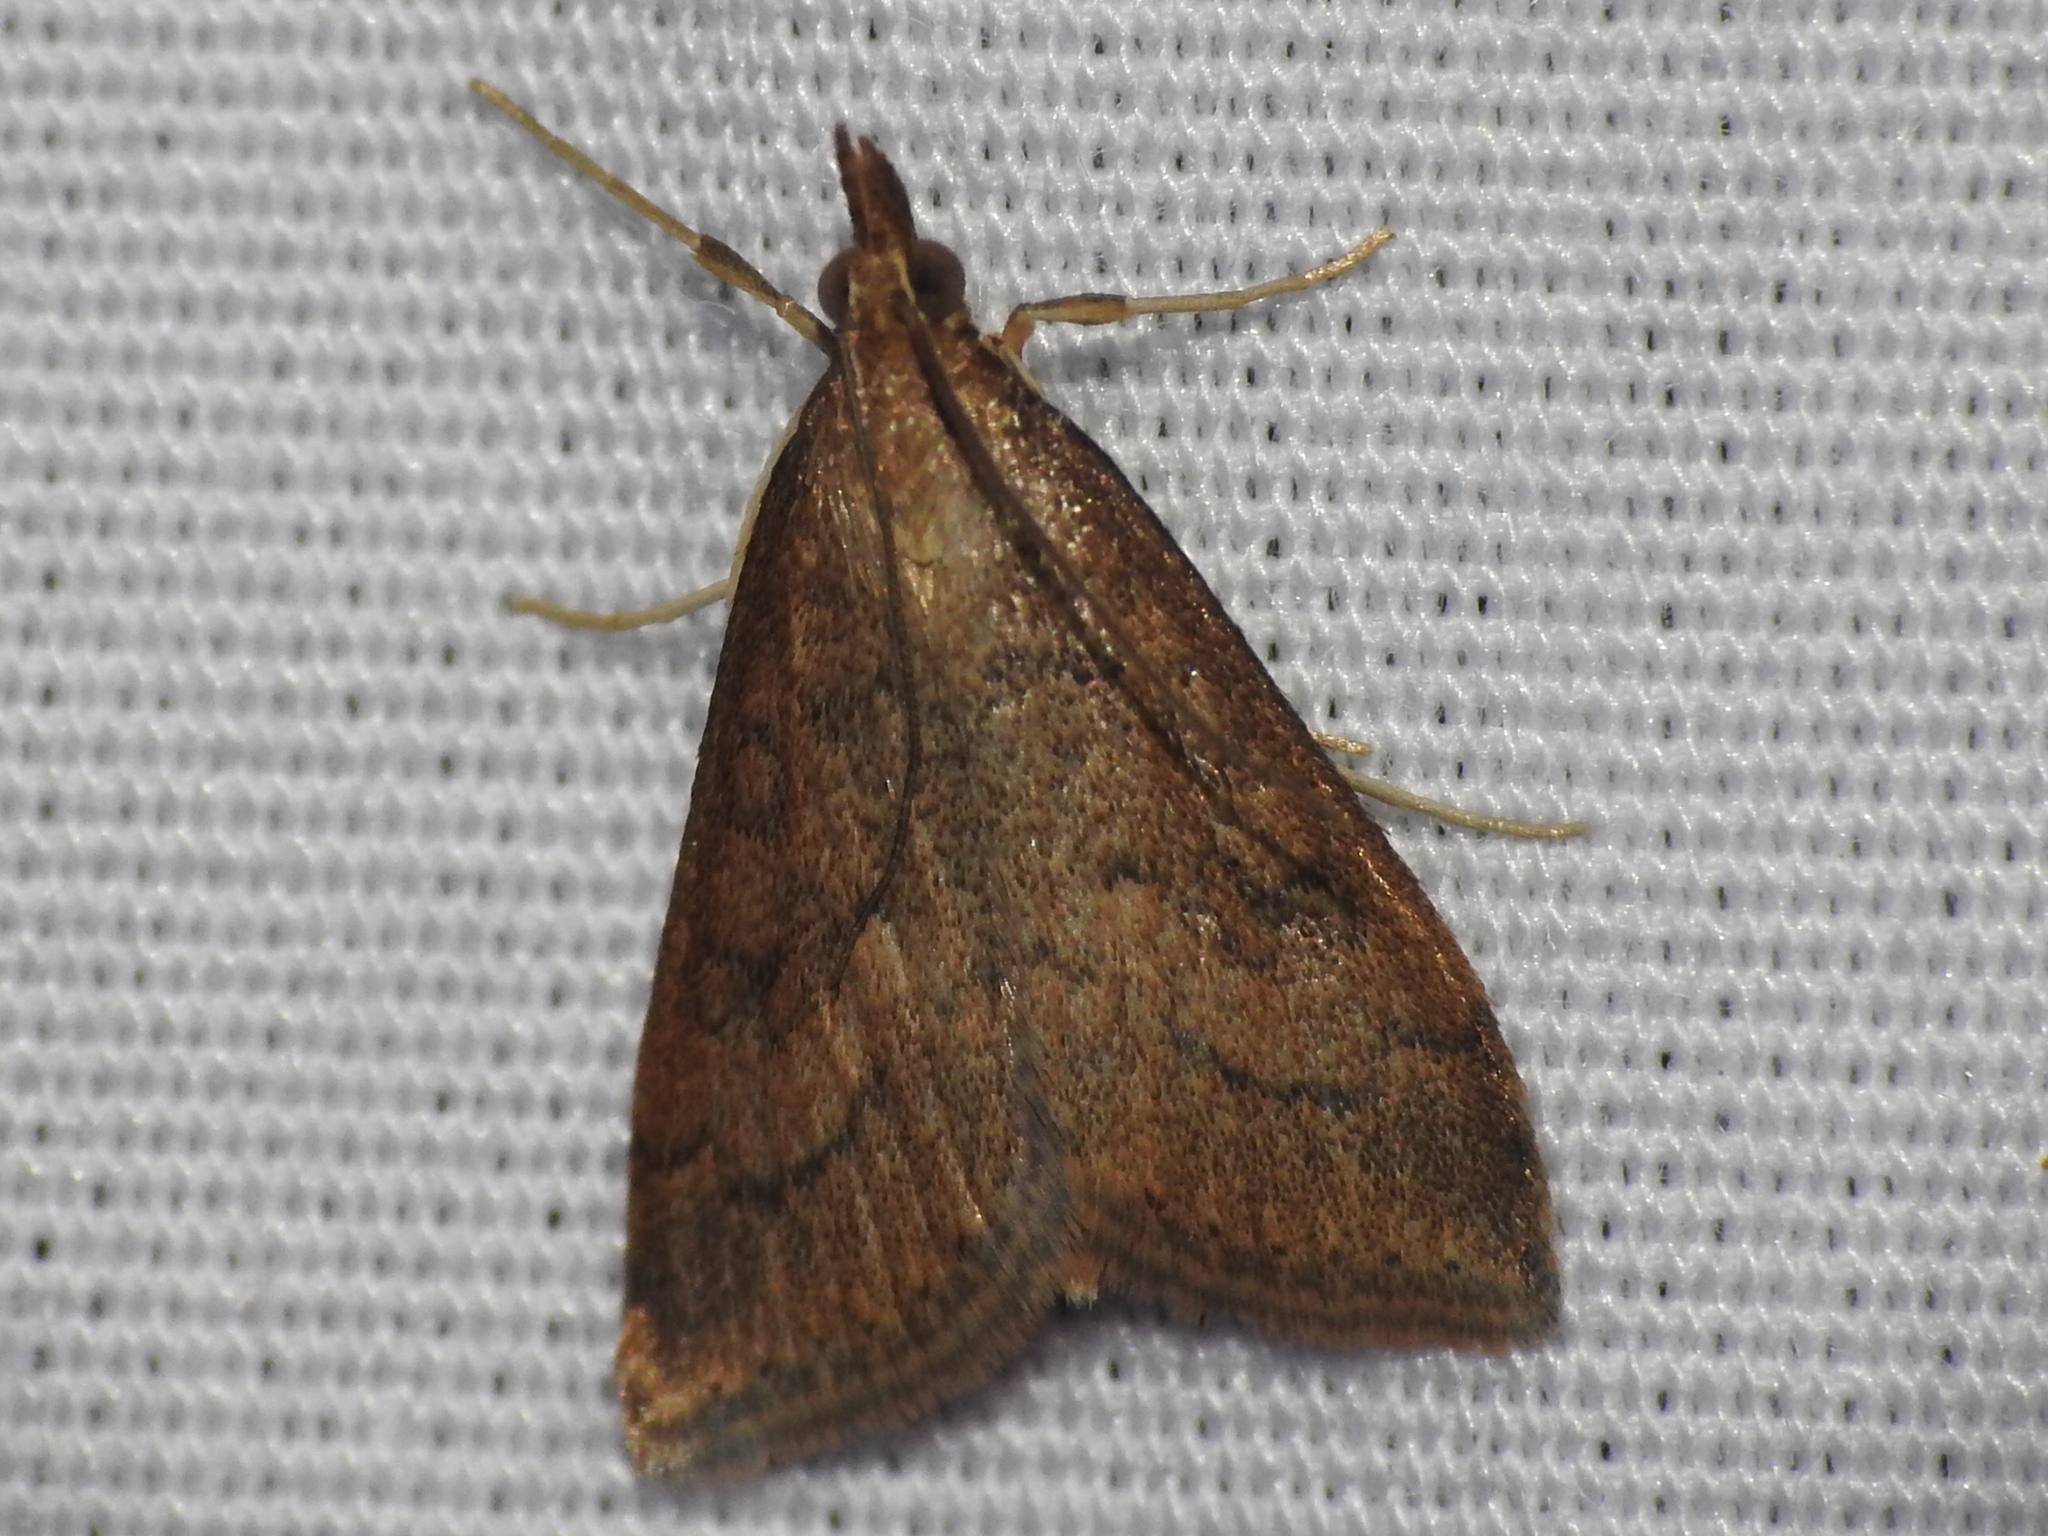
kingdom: Animalia
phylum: Arthropoda
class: Insecta
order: Lepidoptera
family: Crambidae
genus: Udea
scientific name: Udea rubigalis
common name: Celery leaftier moth
